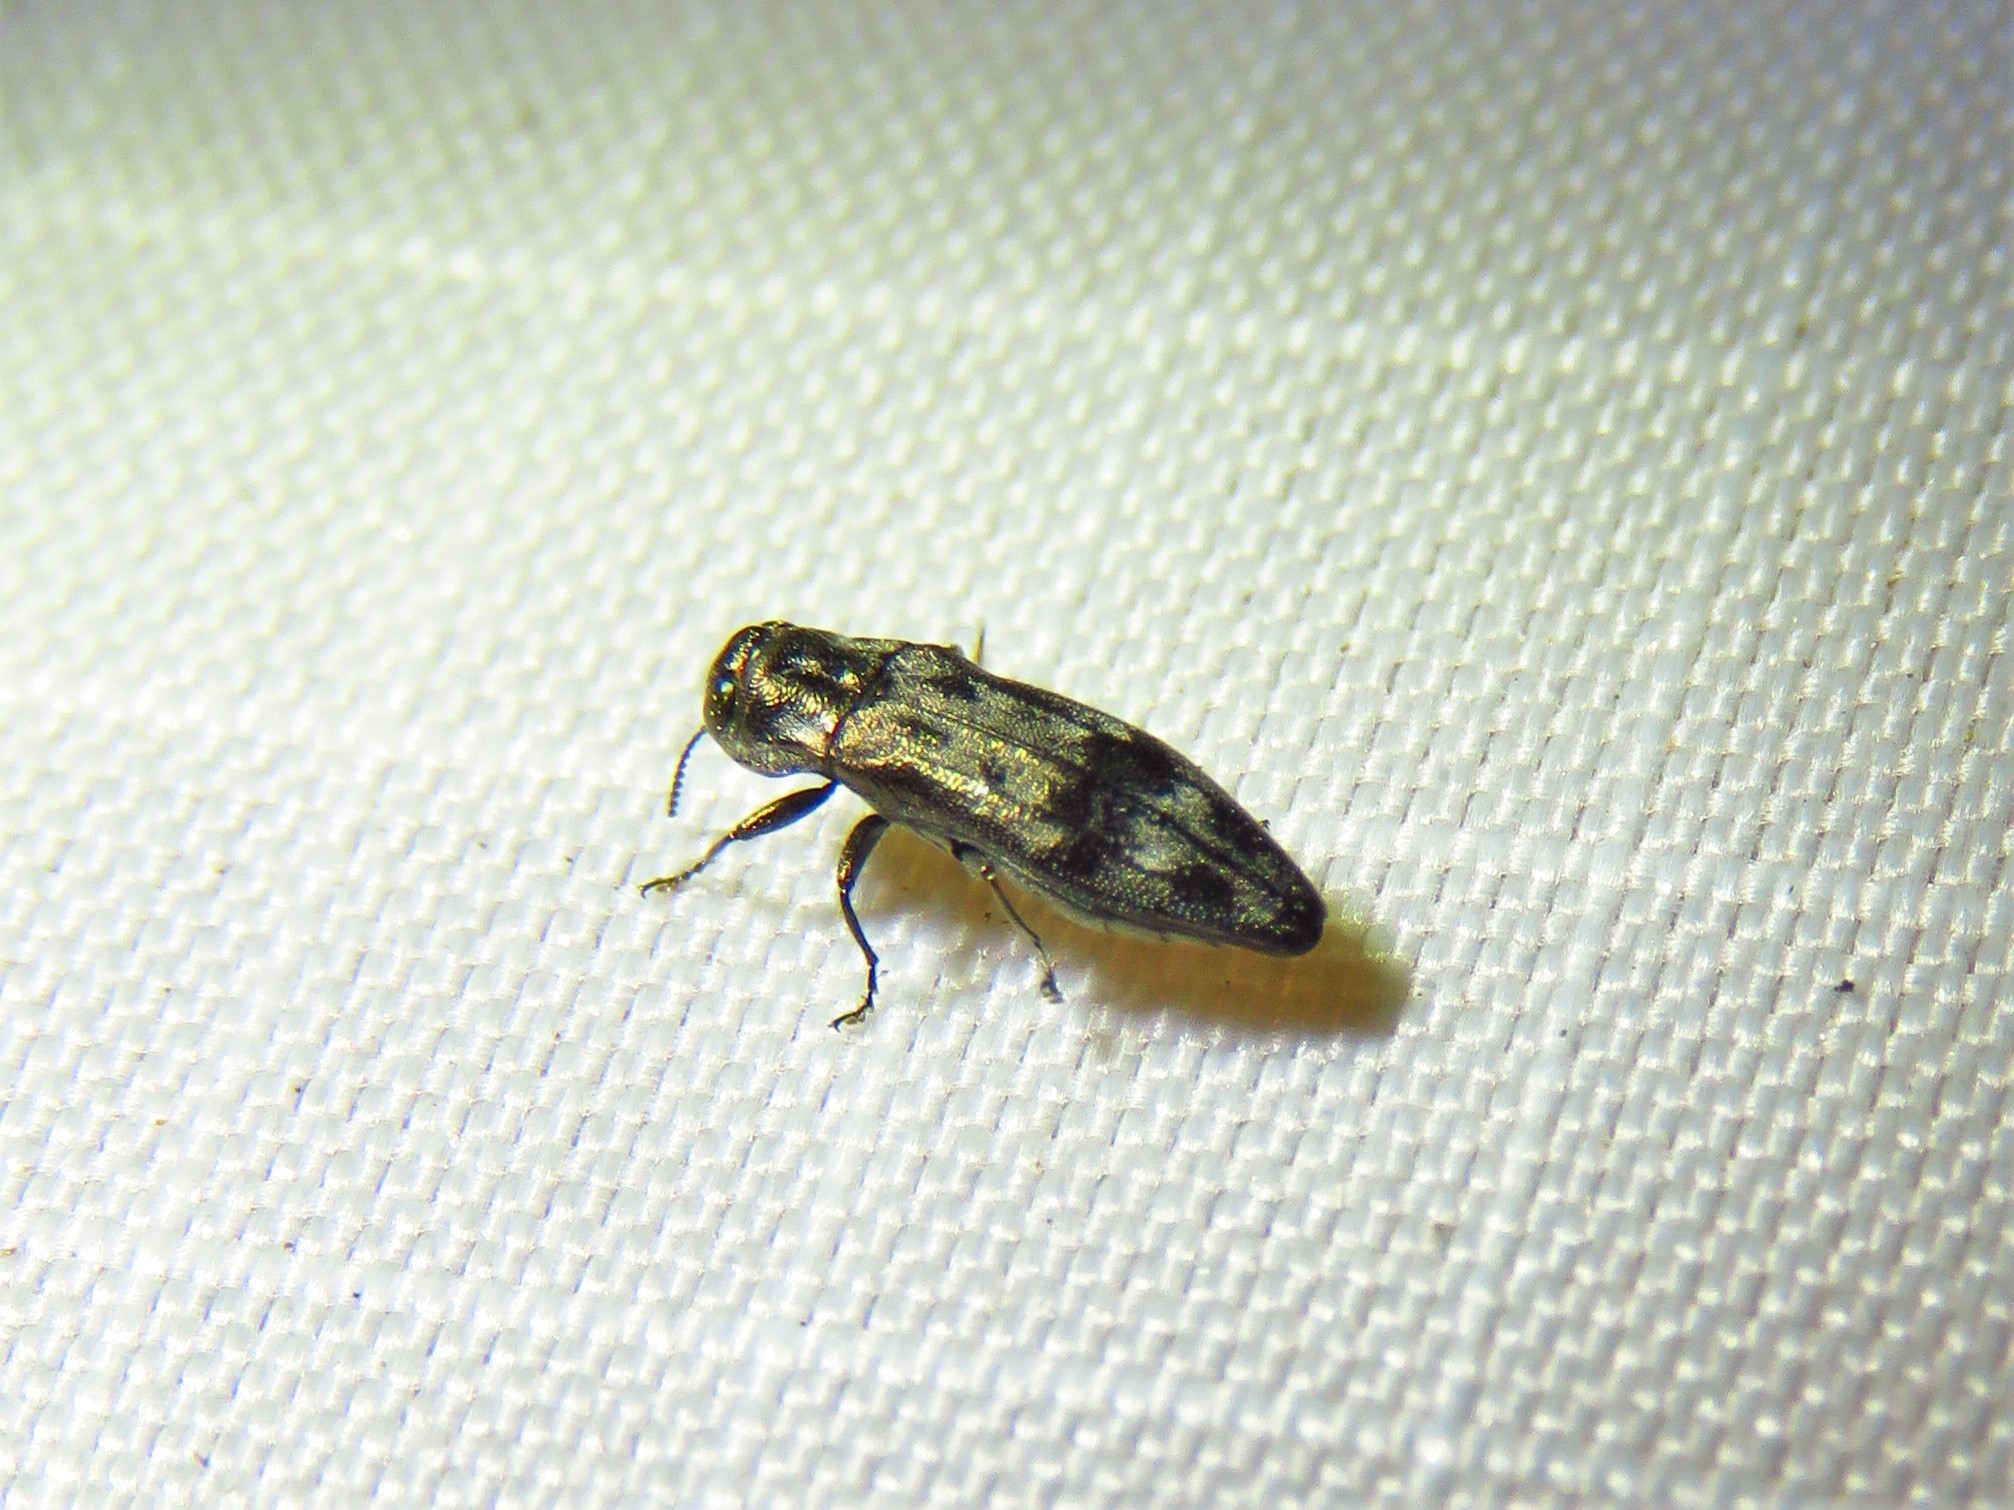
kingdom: Animalia
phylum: Arthropoda
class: Insecta
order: Coleoptera
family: Buprestidae
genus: Agrilus
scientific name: Agrilus lecontei
